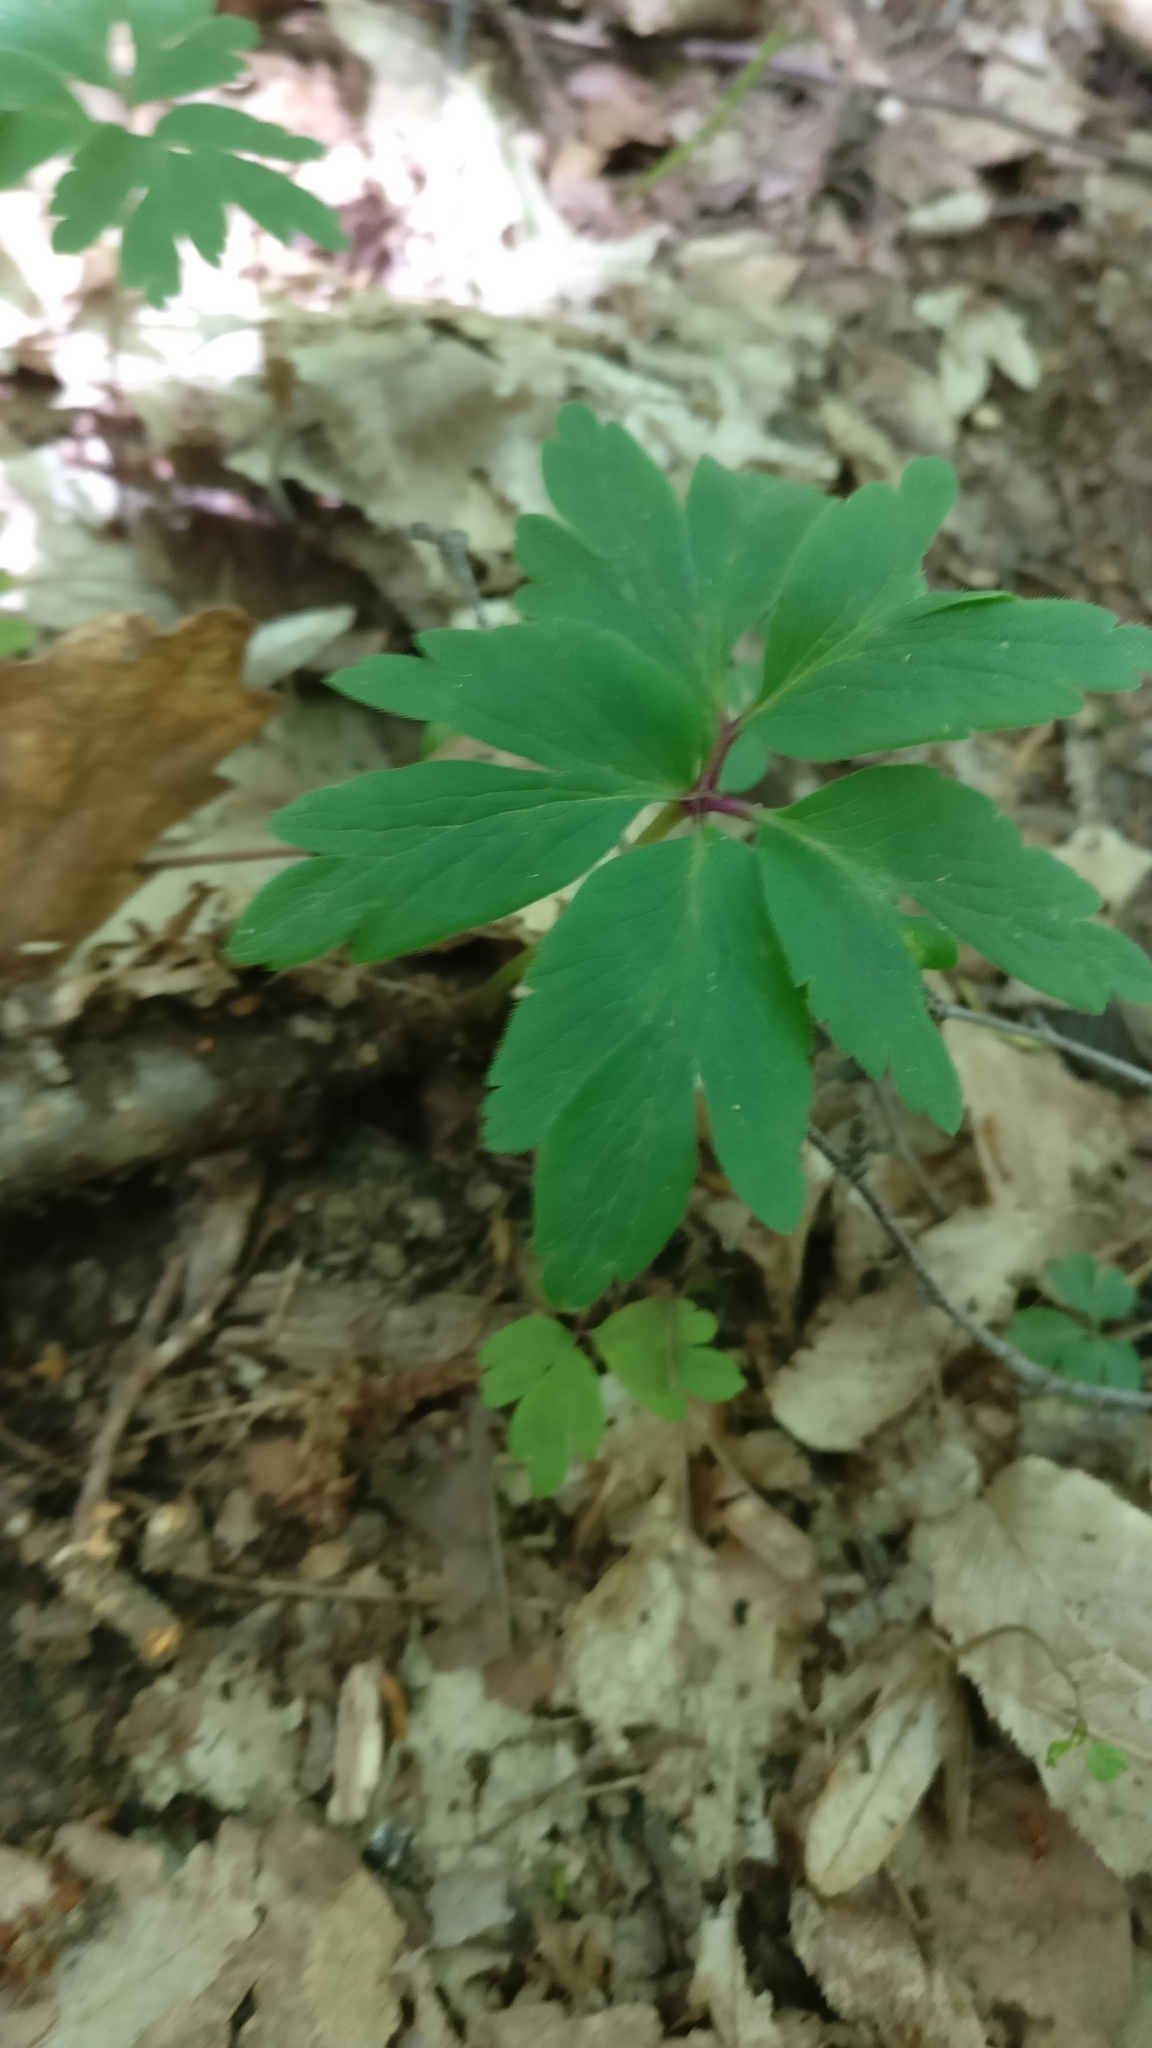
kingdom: Plantae
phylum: Tracheophyta
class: Magnoliopsida
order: Ranunculales
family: Ranunculaceae
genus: Anemone
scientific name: Anemone nemorosa
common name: Wood anemone
